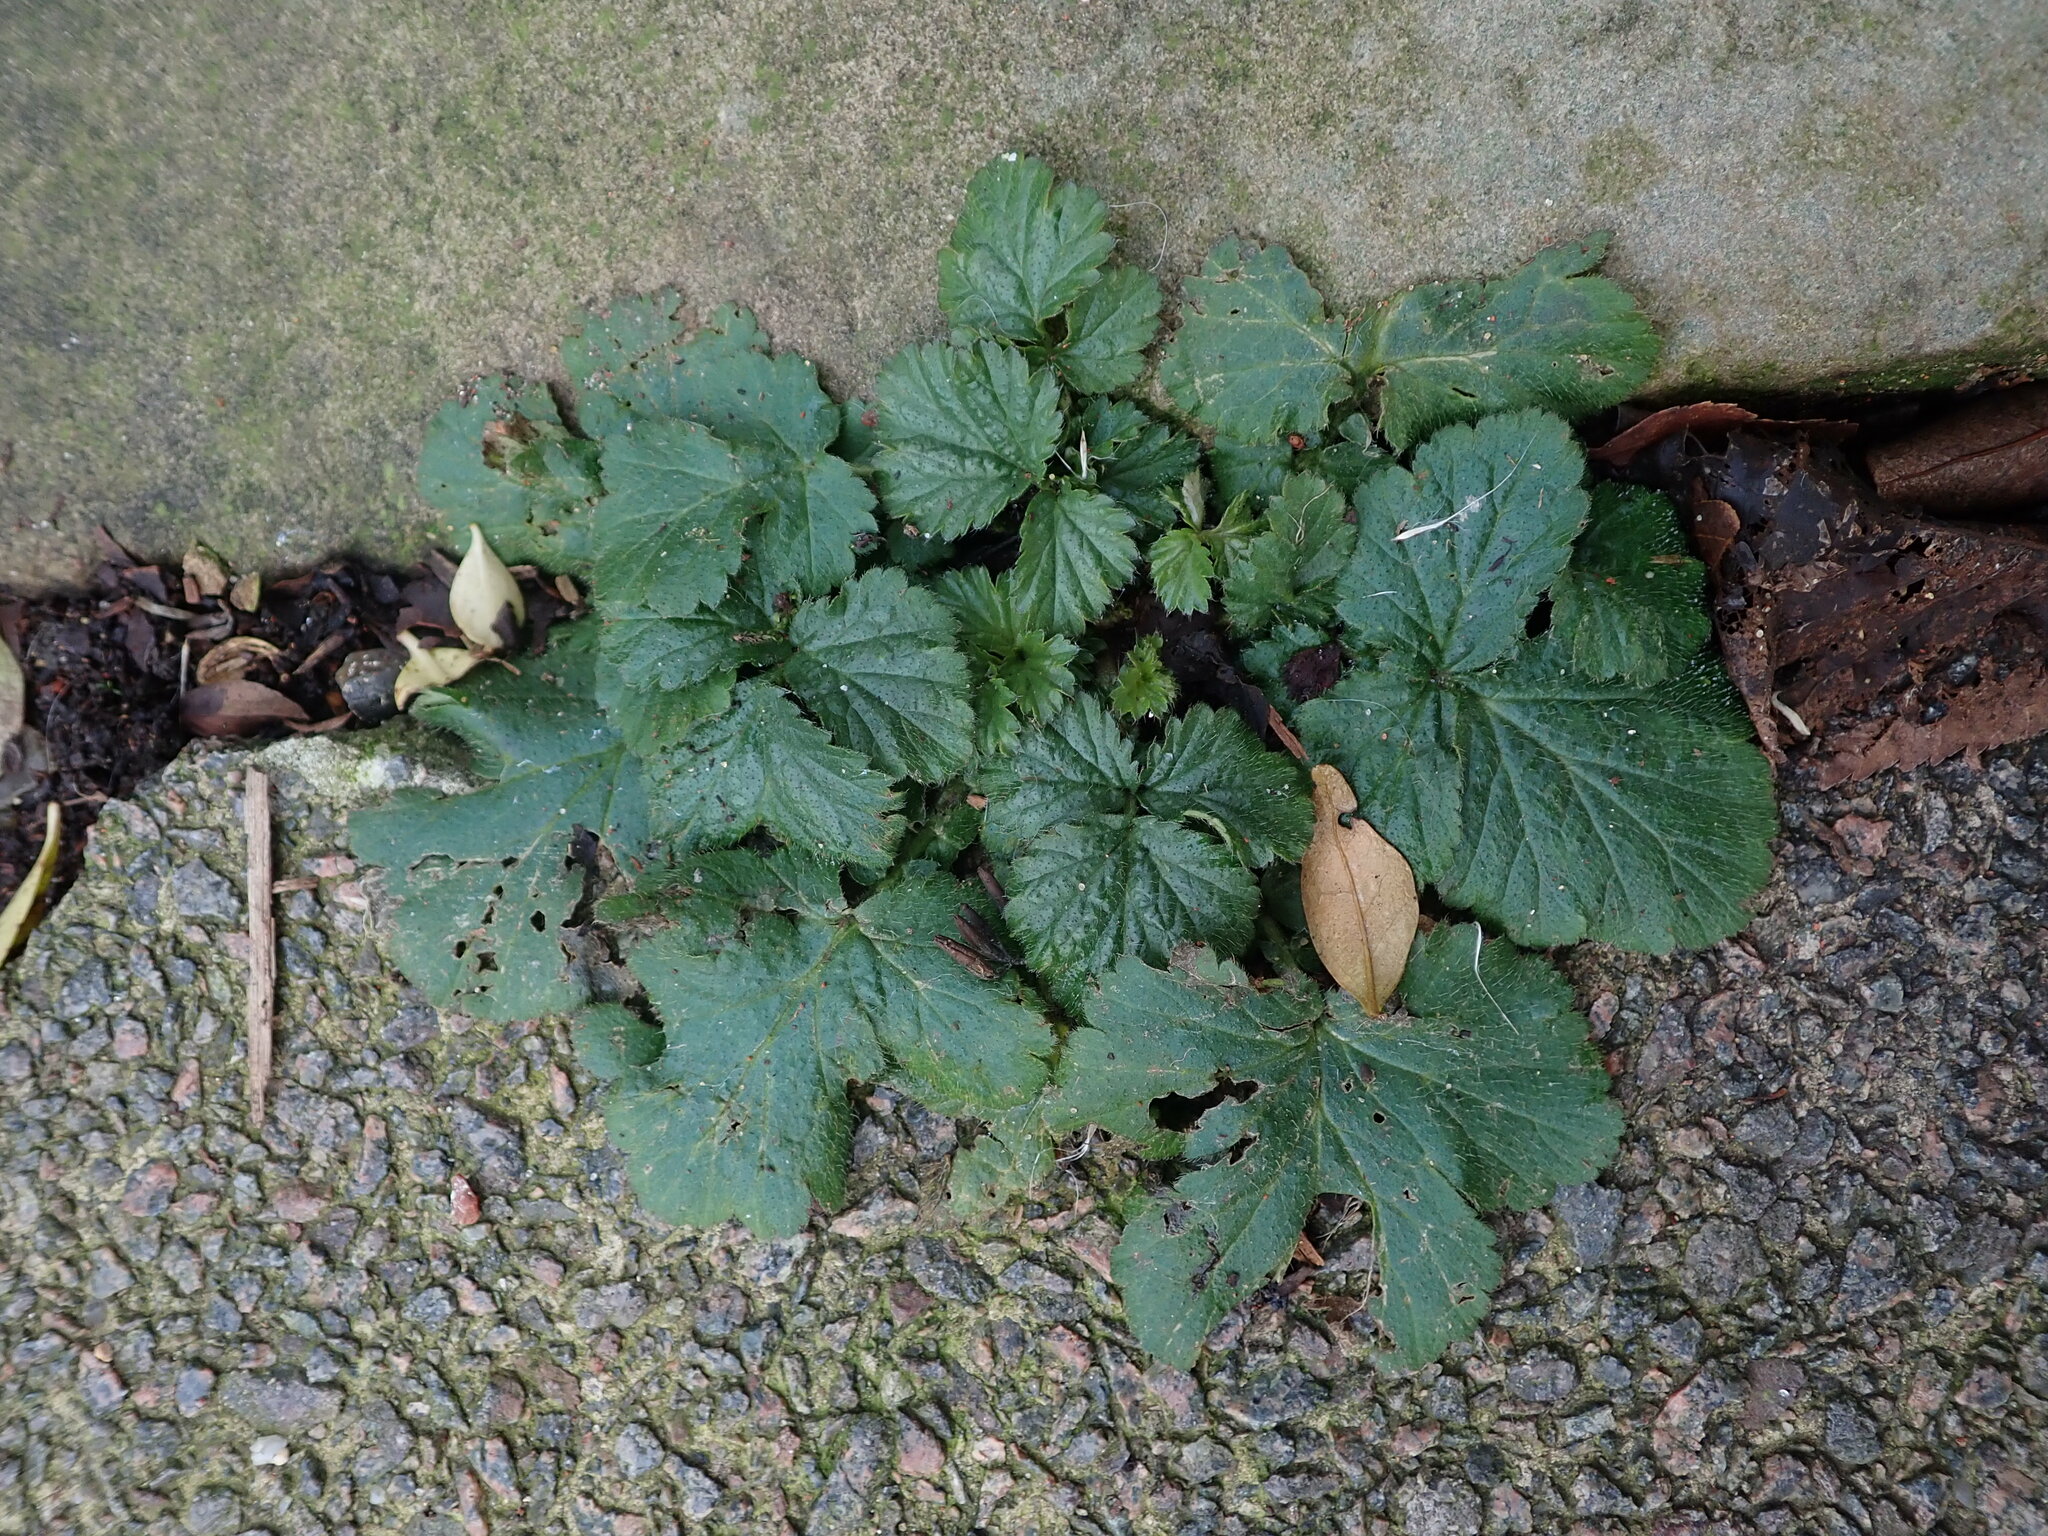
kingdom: Plantae
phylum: Tracheophyta
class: Magnoliopsida
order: Rosales
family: Rosaceae
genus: Geum
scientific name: Geum urbanum
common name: Wood avens
